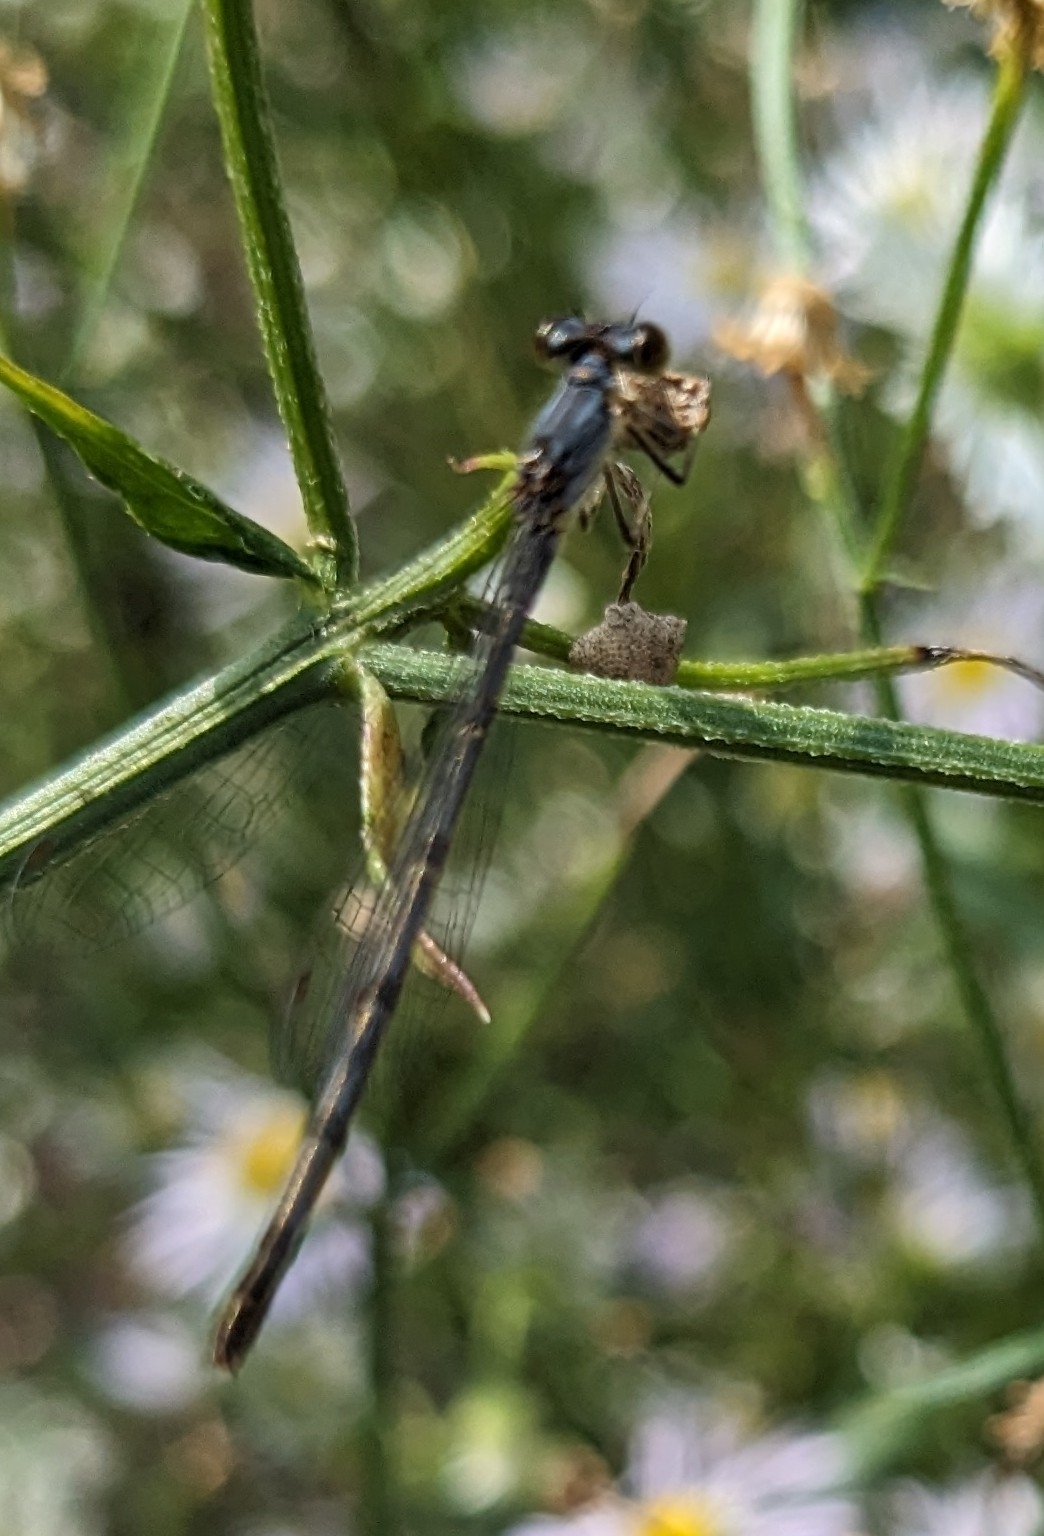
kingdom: Animalia
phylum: Arthropoda
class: Insecta
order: Odonata
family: Coenagrionidae
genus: Ischnura
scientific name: Ischnura posita
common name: Fragile forktail
